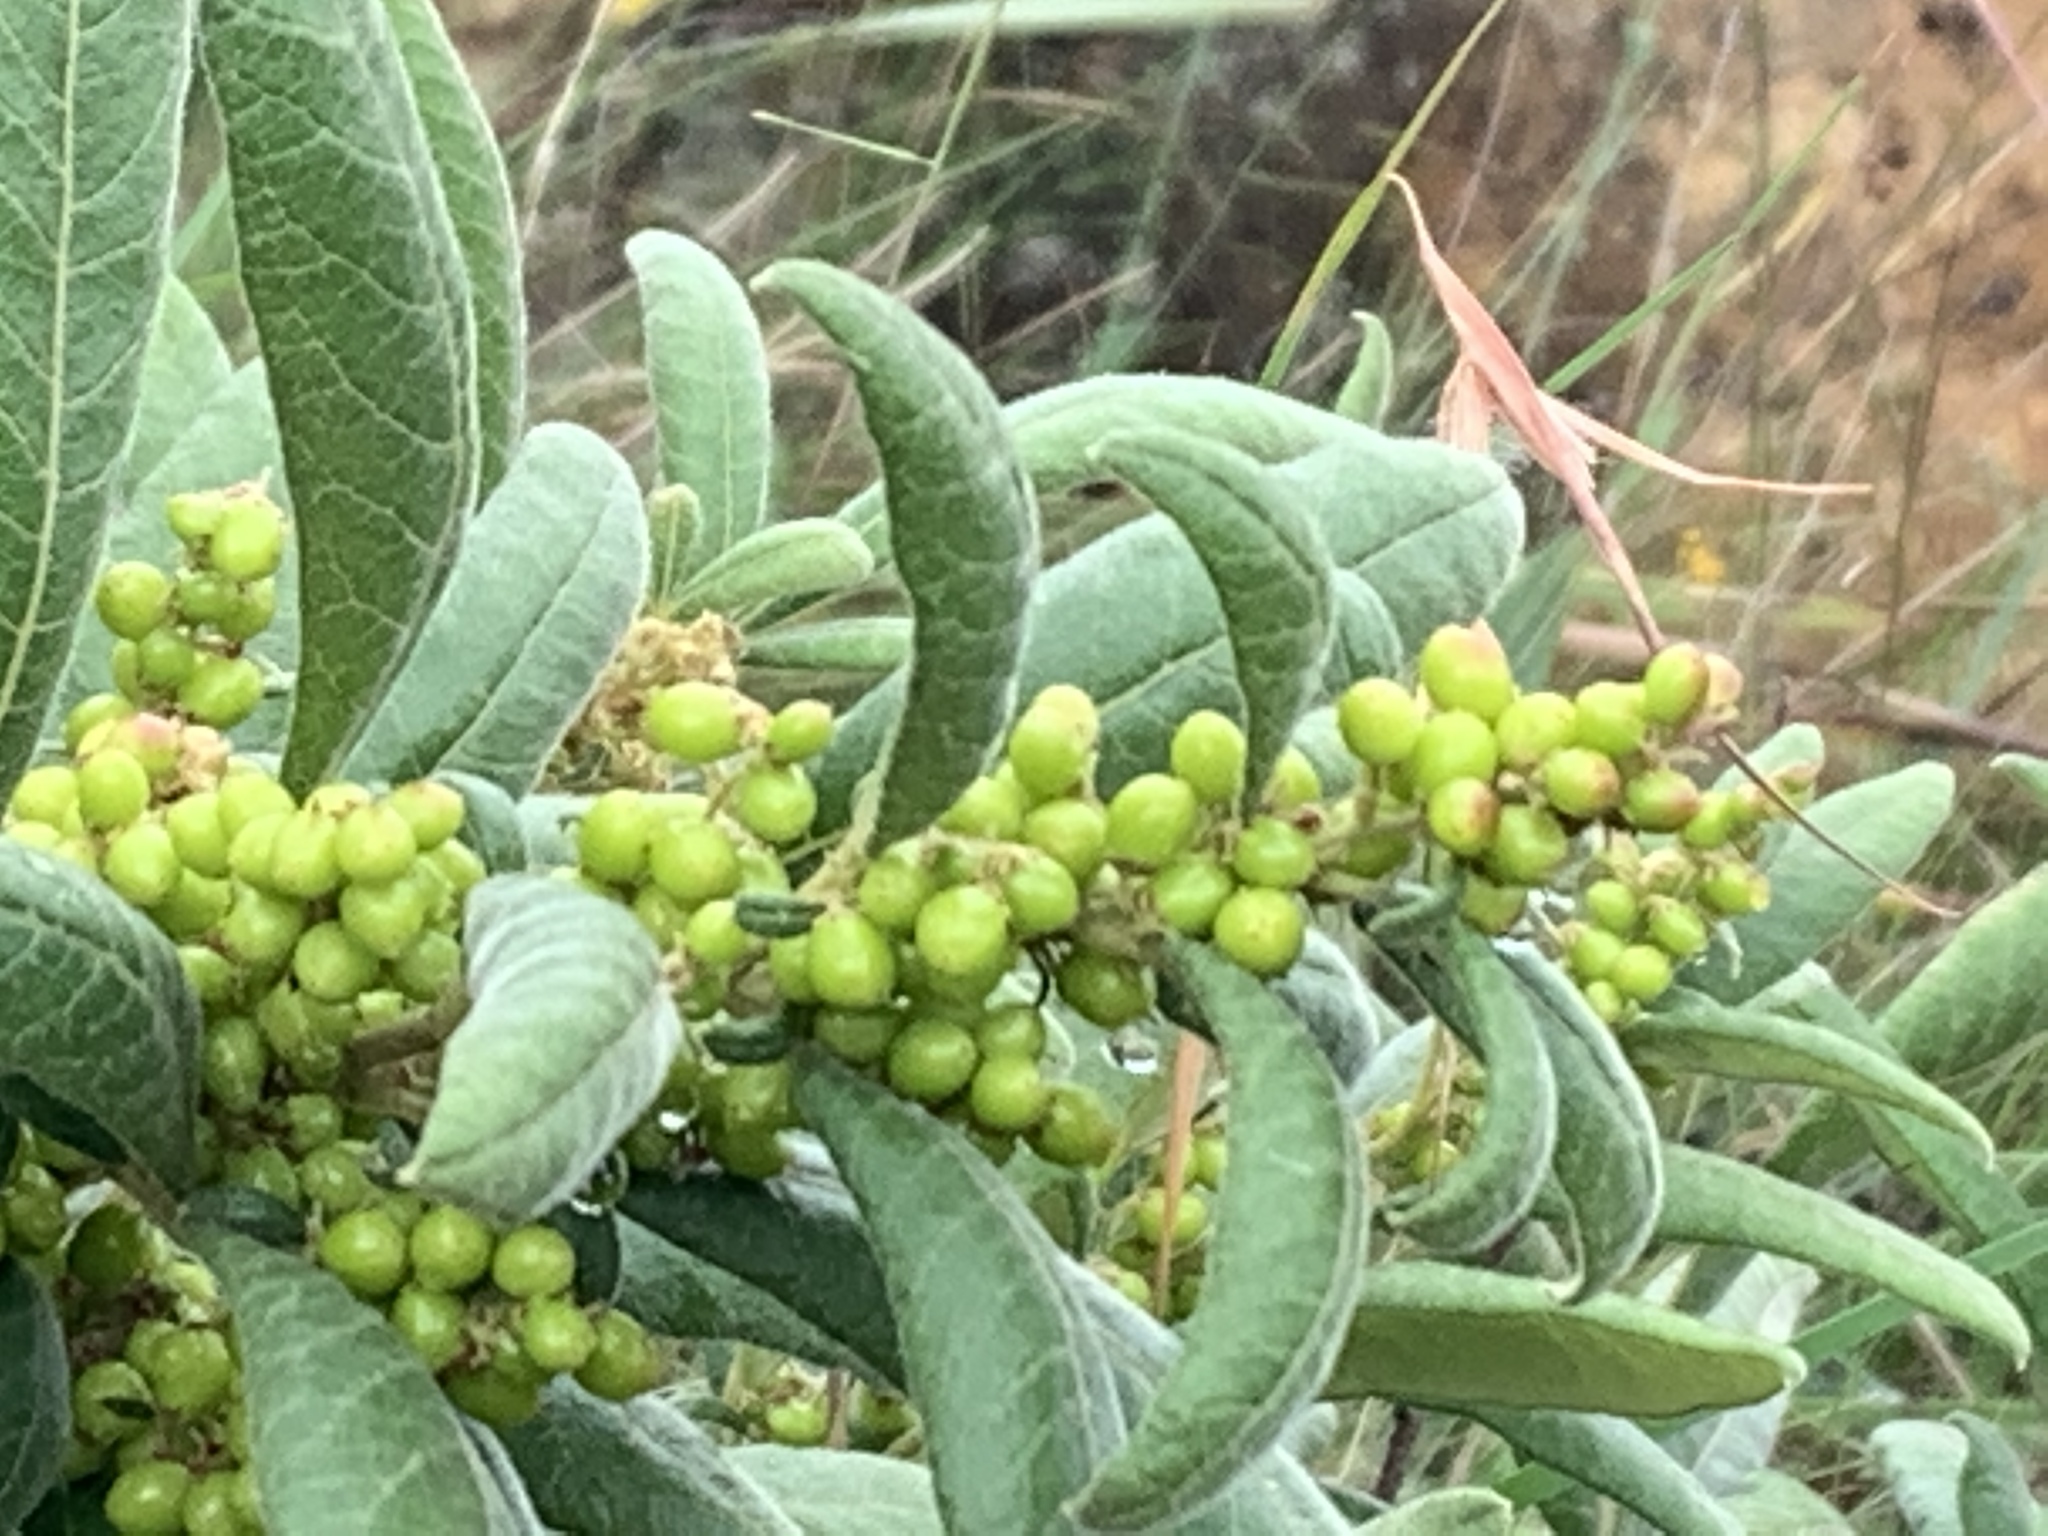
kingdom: Plantae
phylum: Tracheophyta
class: Magnoliopsida
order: Sapindales
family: Anacardiaceae
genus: Searsia
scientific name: Searsia discolor
